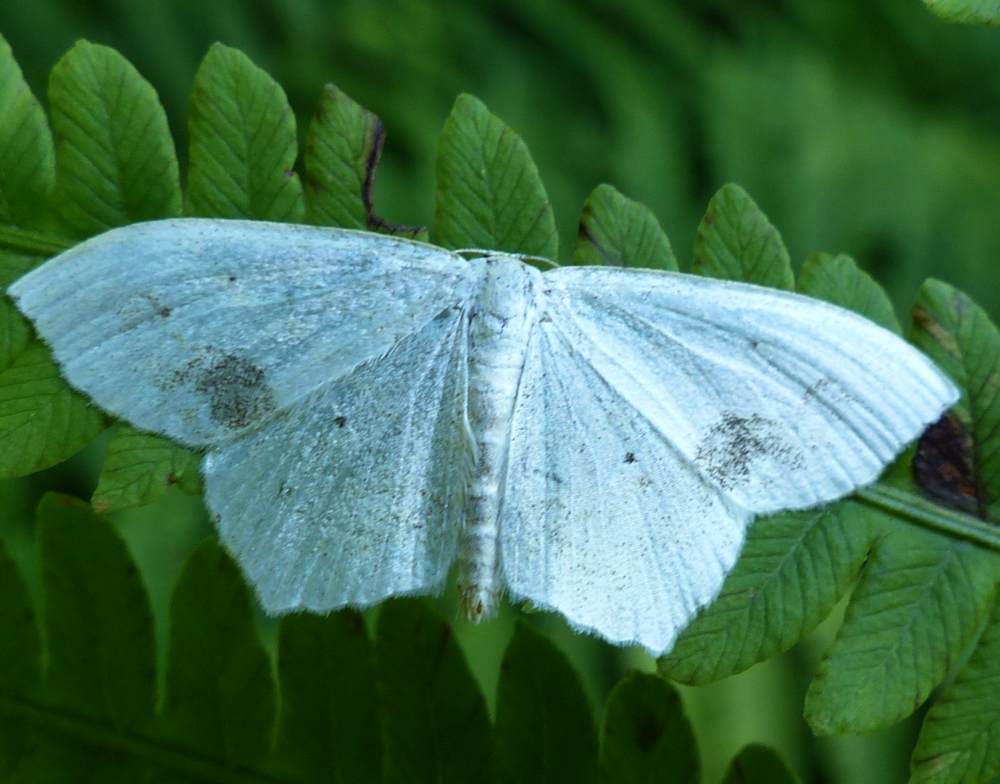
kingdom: Animalia
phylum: Arthropoda
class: Insecta
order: Lepidoptera
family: Geometridae
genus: Scopula
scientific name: Scopula limboundata
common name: Large lace border
